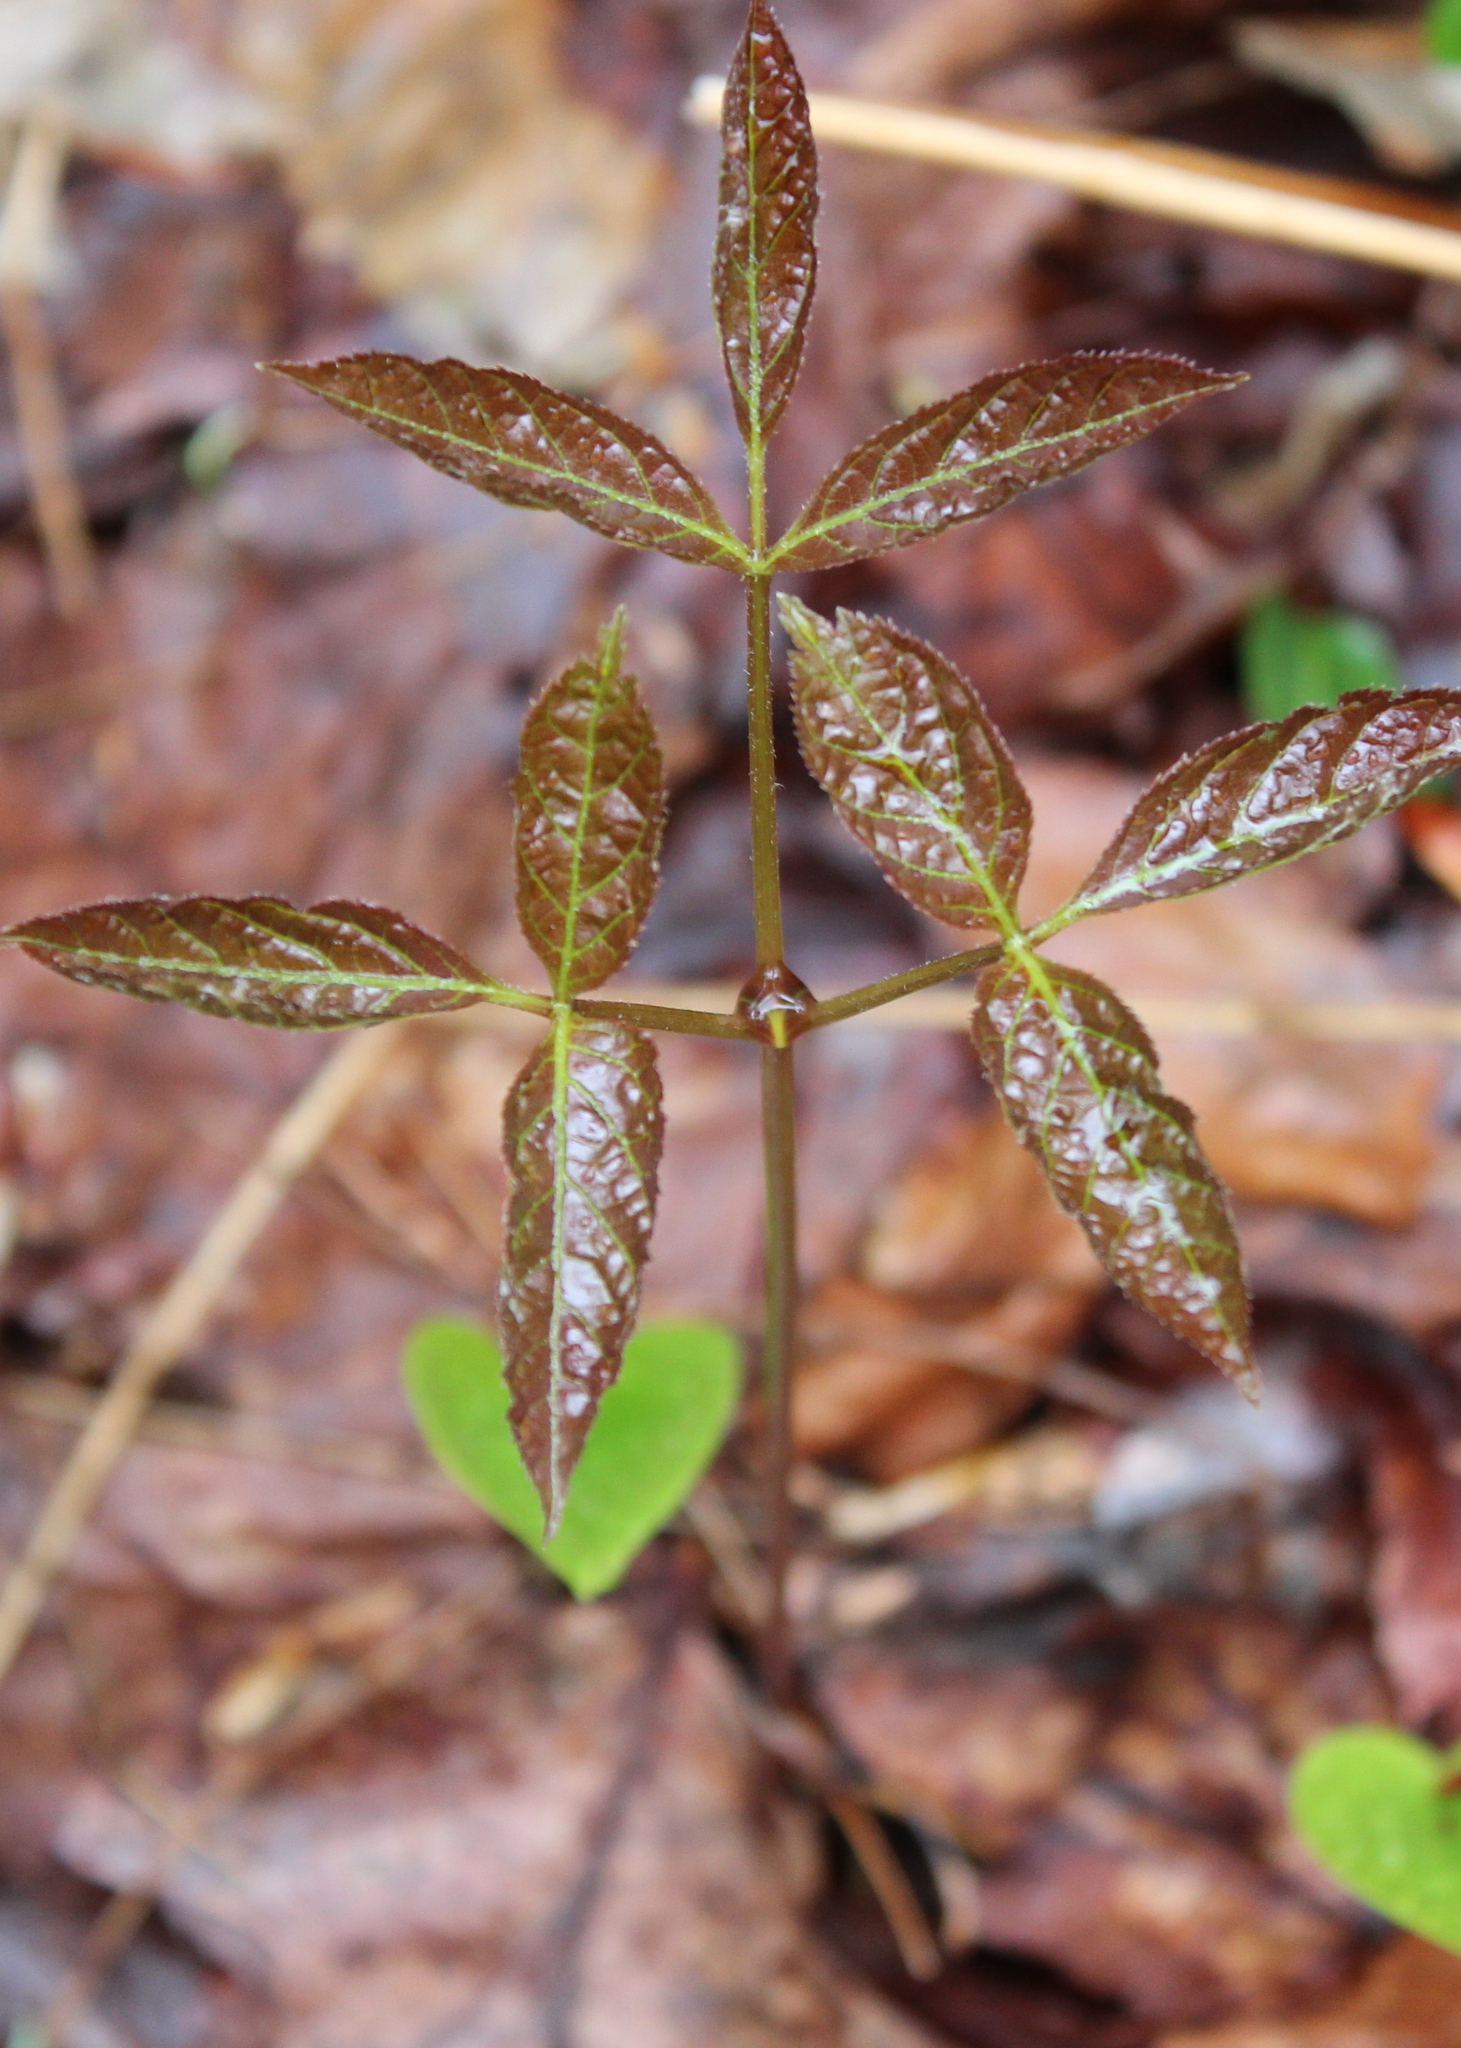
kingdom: Plantae
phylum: Tracheophyta
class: Magnoliopsida
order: Apiales
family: Araliaceae
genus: Aralia
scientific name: Aralia nudicaulis
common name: Wild sarsaparilla
